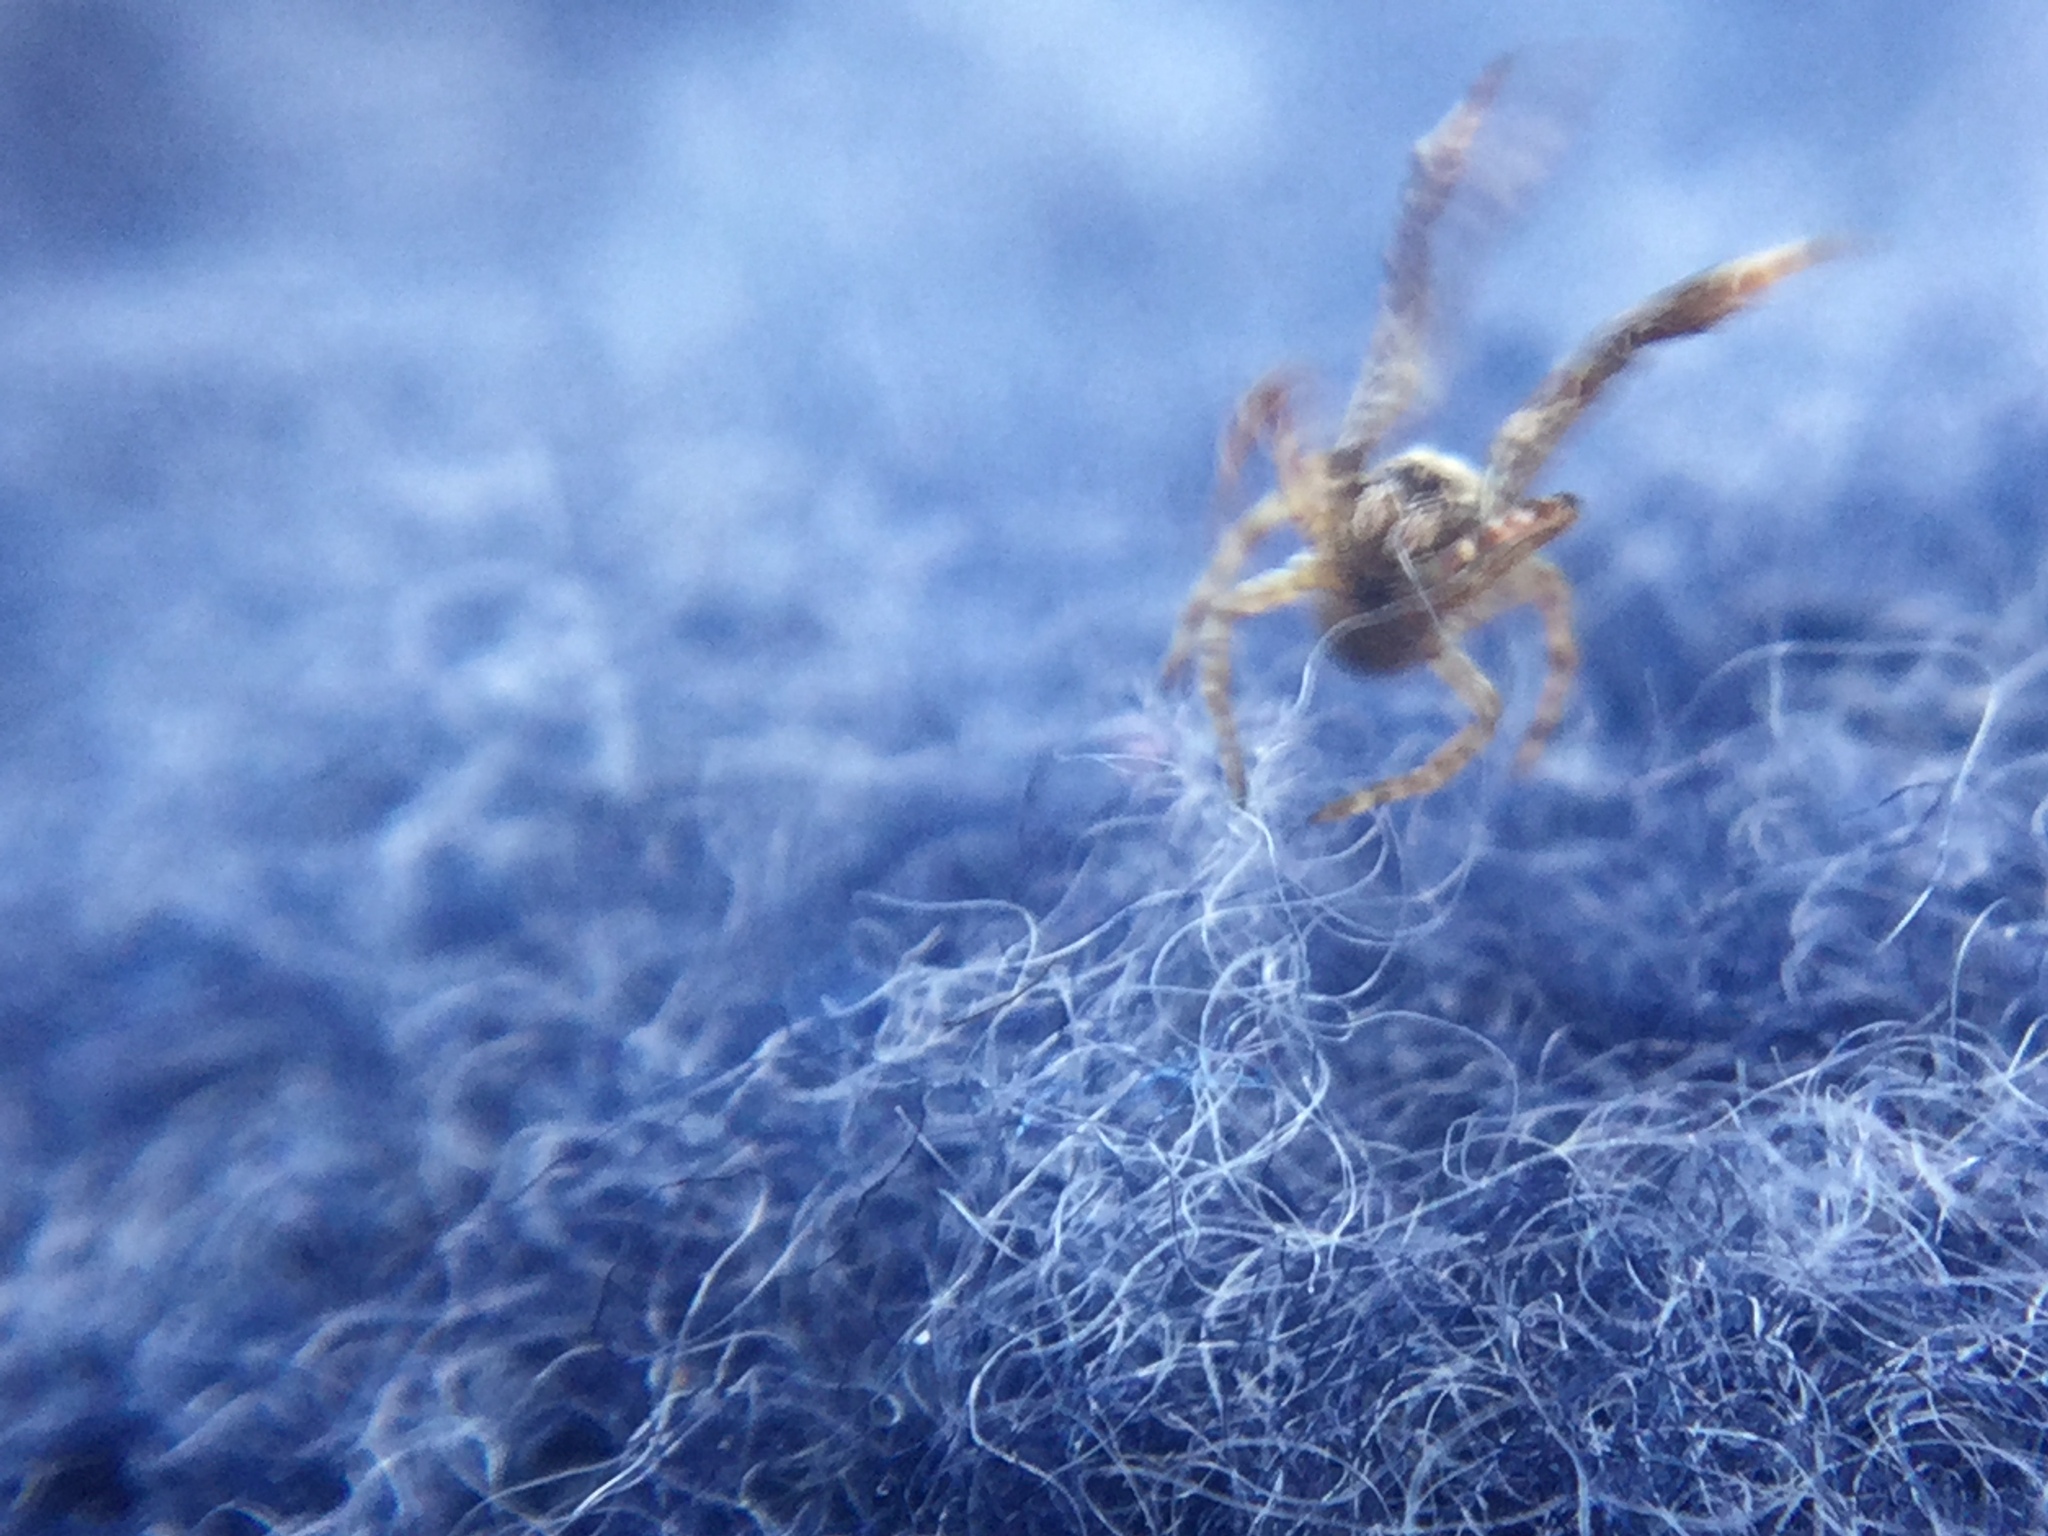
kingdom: Animalia
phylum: Arthropoda
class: Arachnida
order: Araneae
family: Uloboridae
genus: Uloborus
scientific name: Uloborus glomosus
